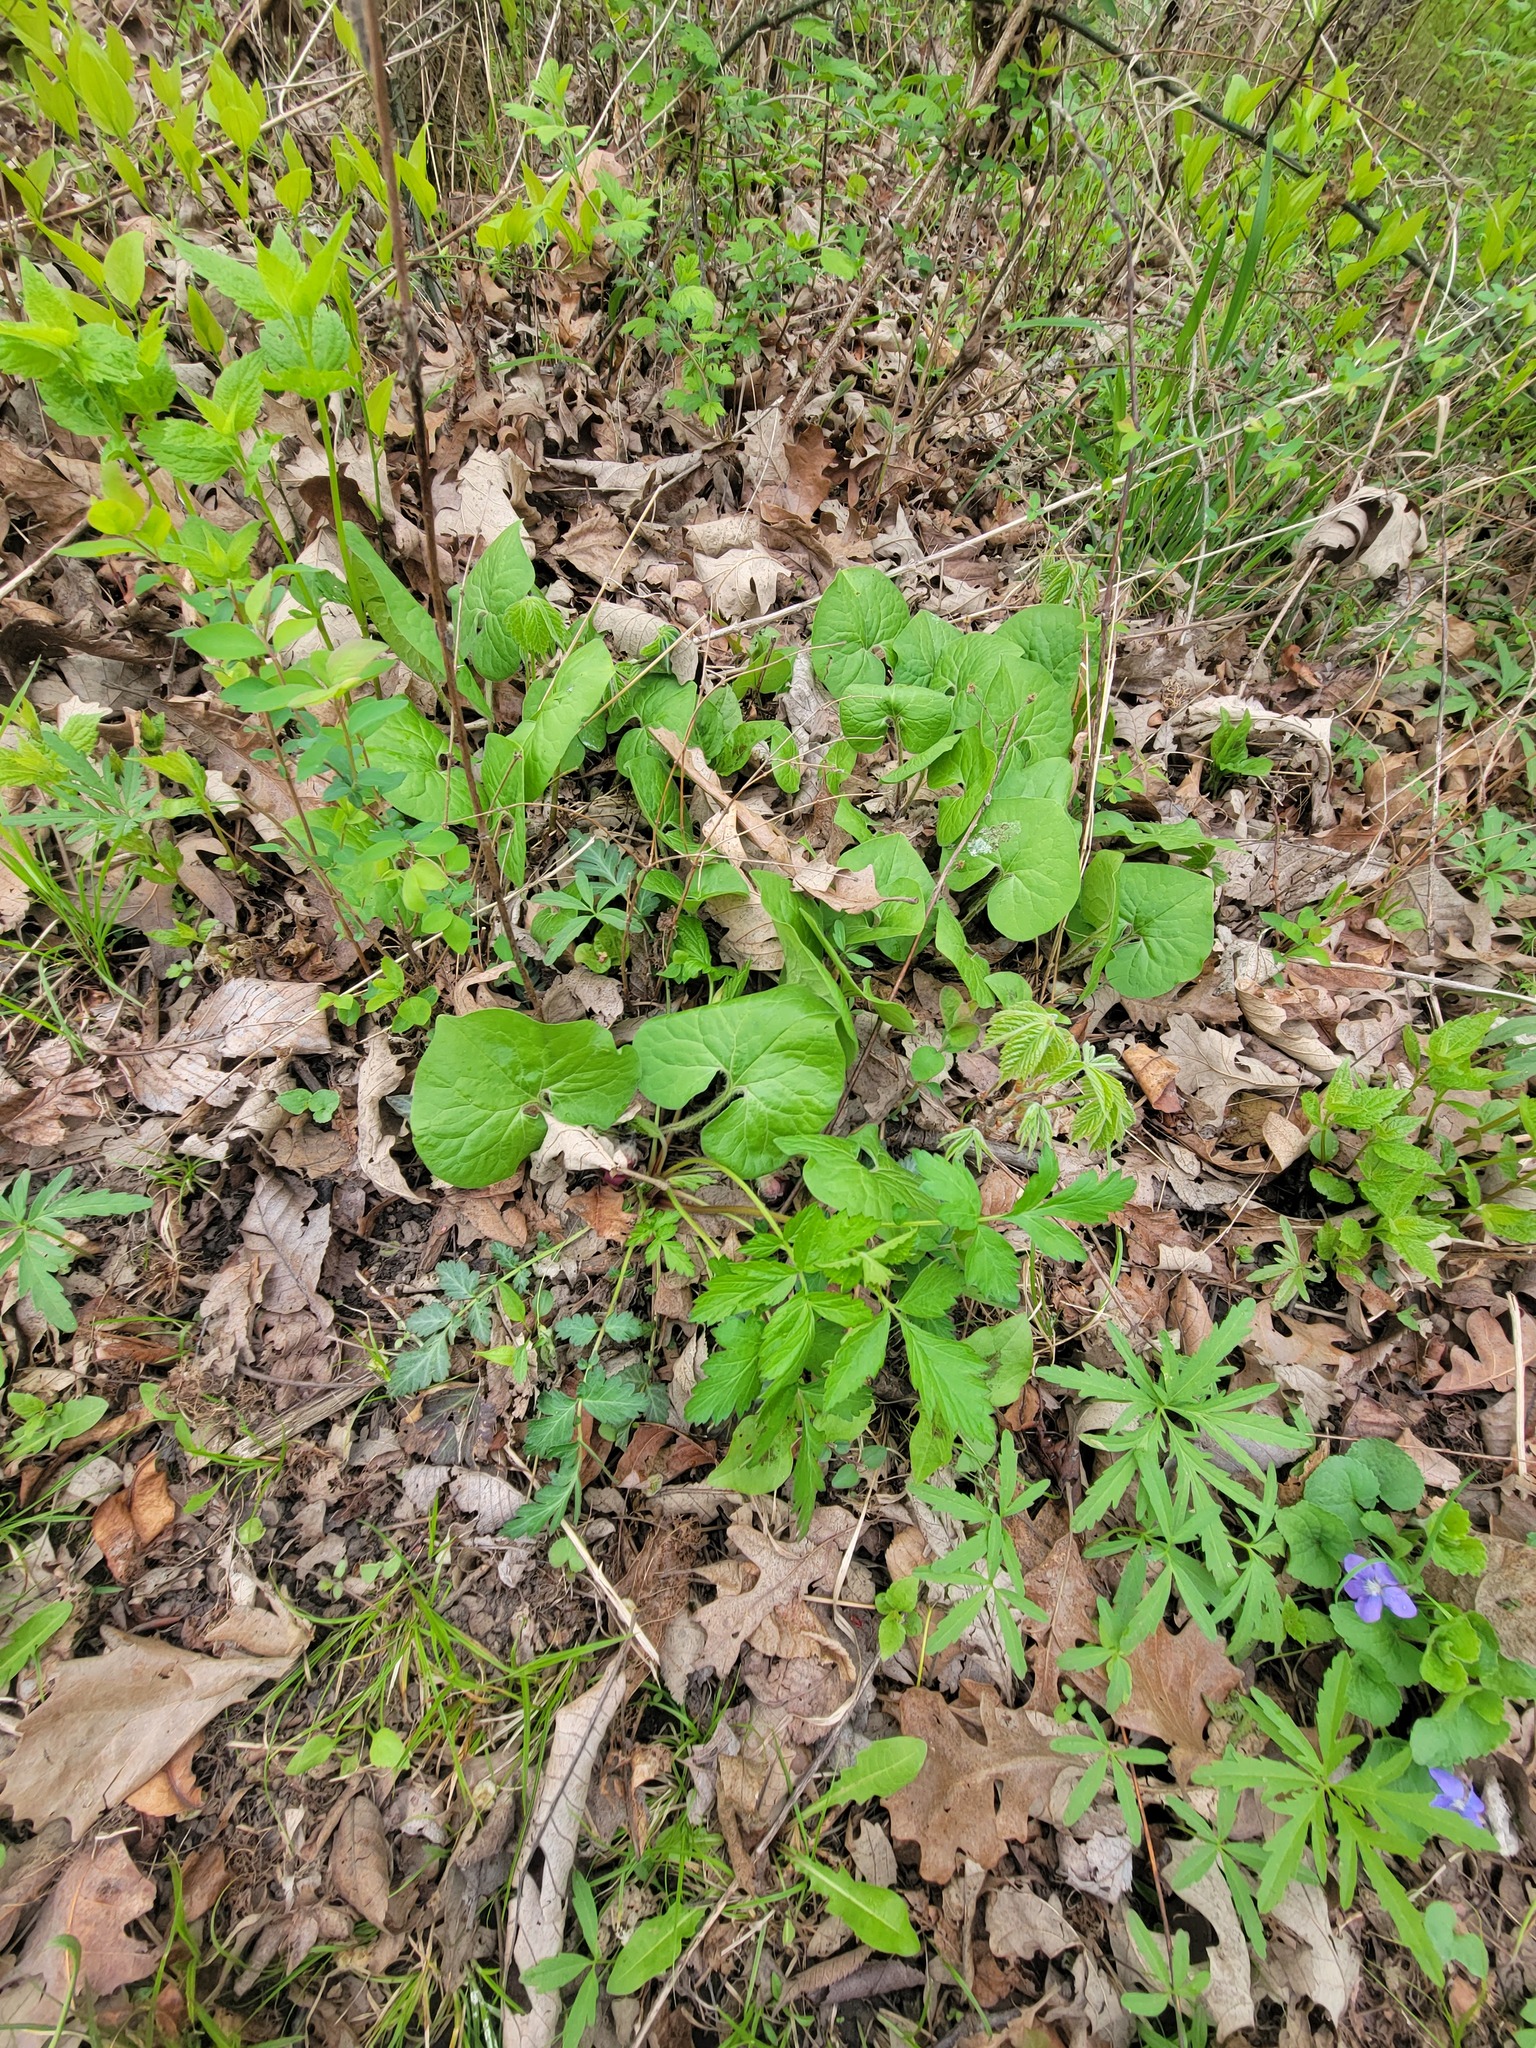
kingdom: Plantae
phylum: Tracheophyta
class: Magnoliopsida
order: Piperales
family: Aristolochiaceae
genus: Asarum
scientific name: Asarum canadense
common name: Wild ginger
